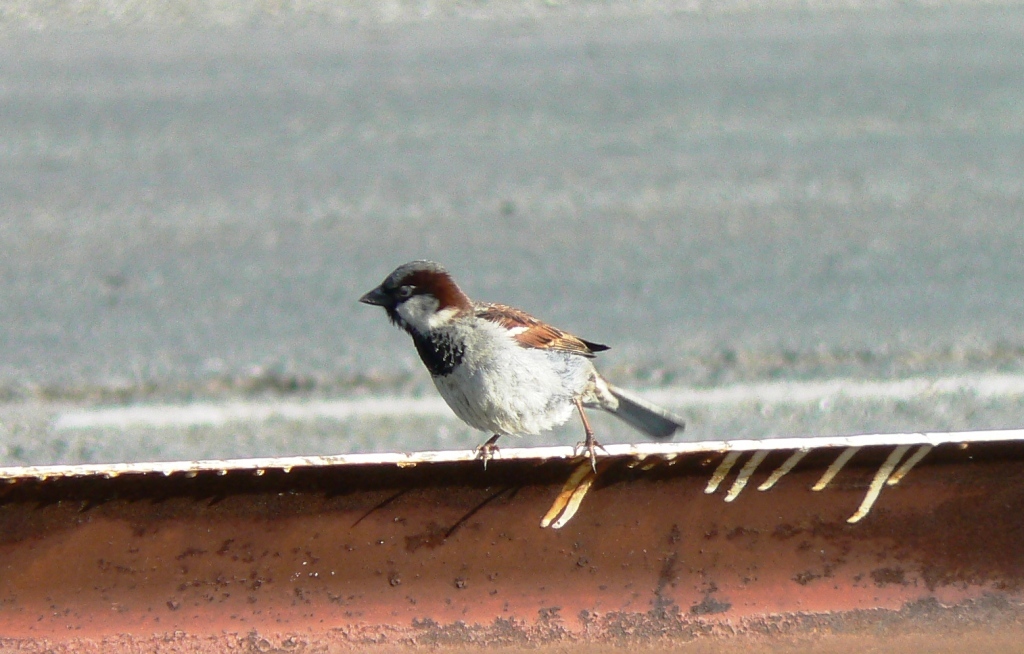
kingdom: Animalia
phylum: Chordata
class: Aves
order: Passeriformes
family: Passeridae
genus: Passer
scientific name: Passer domesticus
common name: House sparrow
